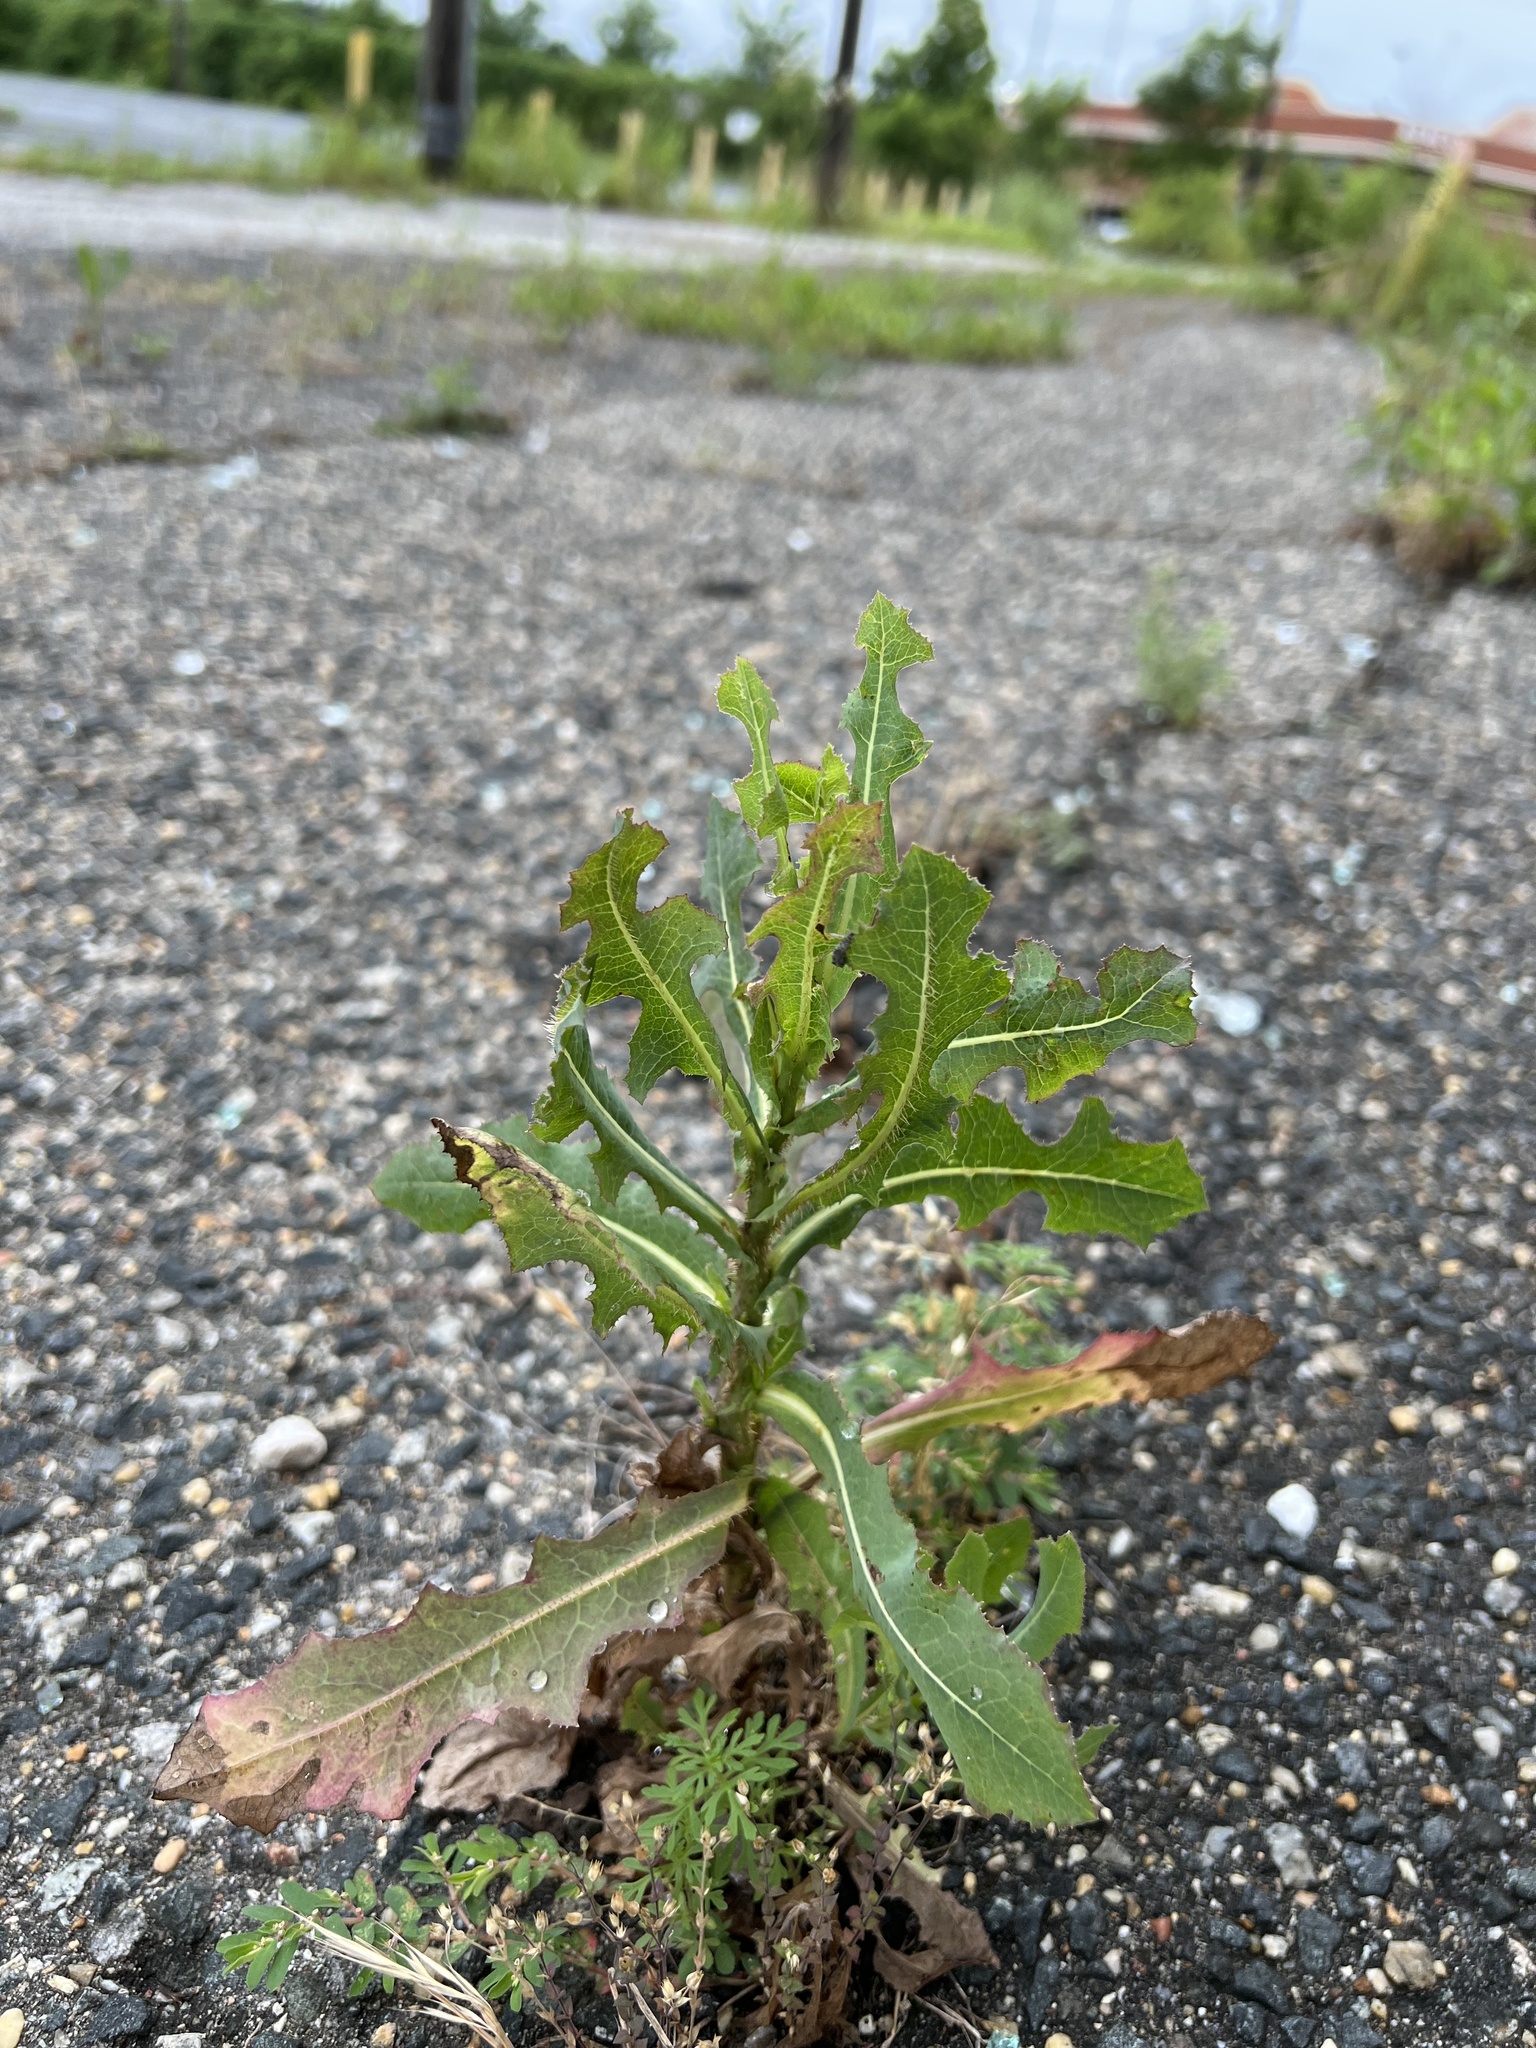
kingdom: Plantae
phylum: Tracheophyta
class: Magnoliopsida
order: Asterales
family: Asteraceae
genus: Lactuca
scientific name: Lactuca serriola
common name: Prickly lettuce
